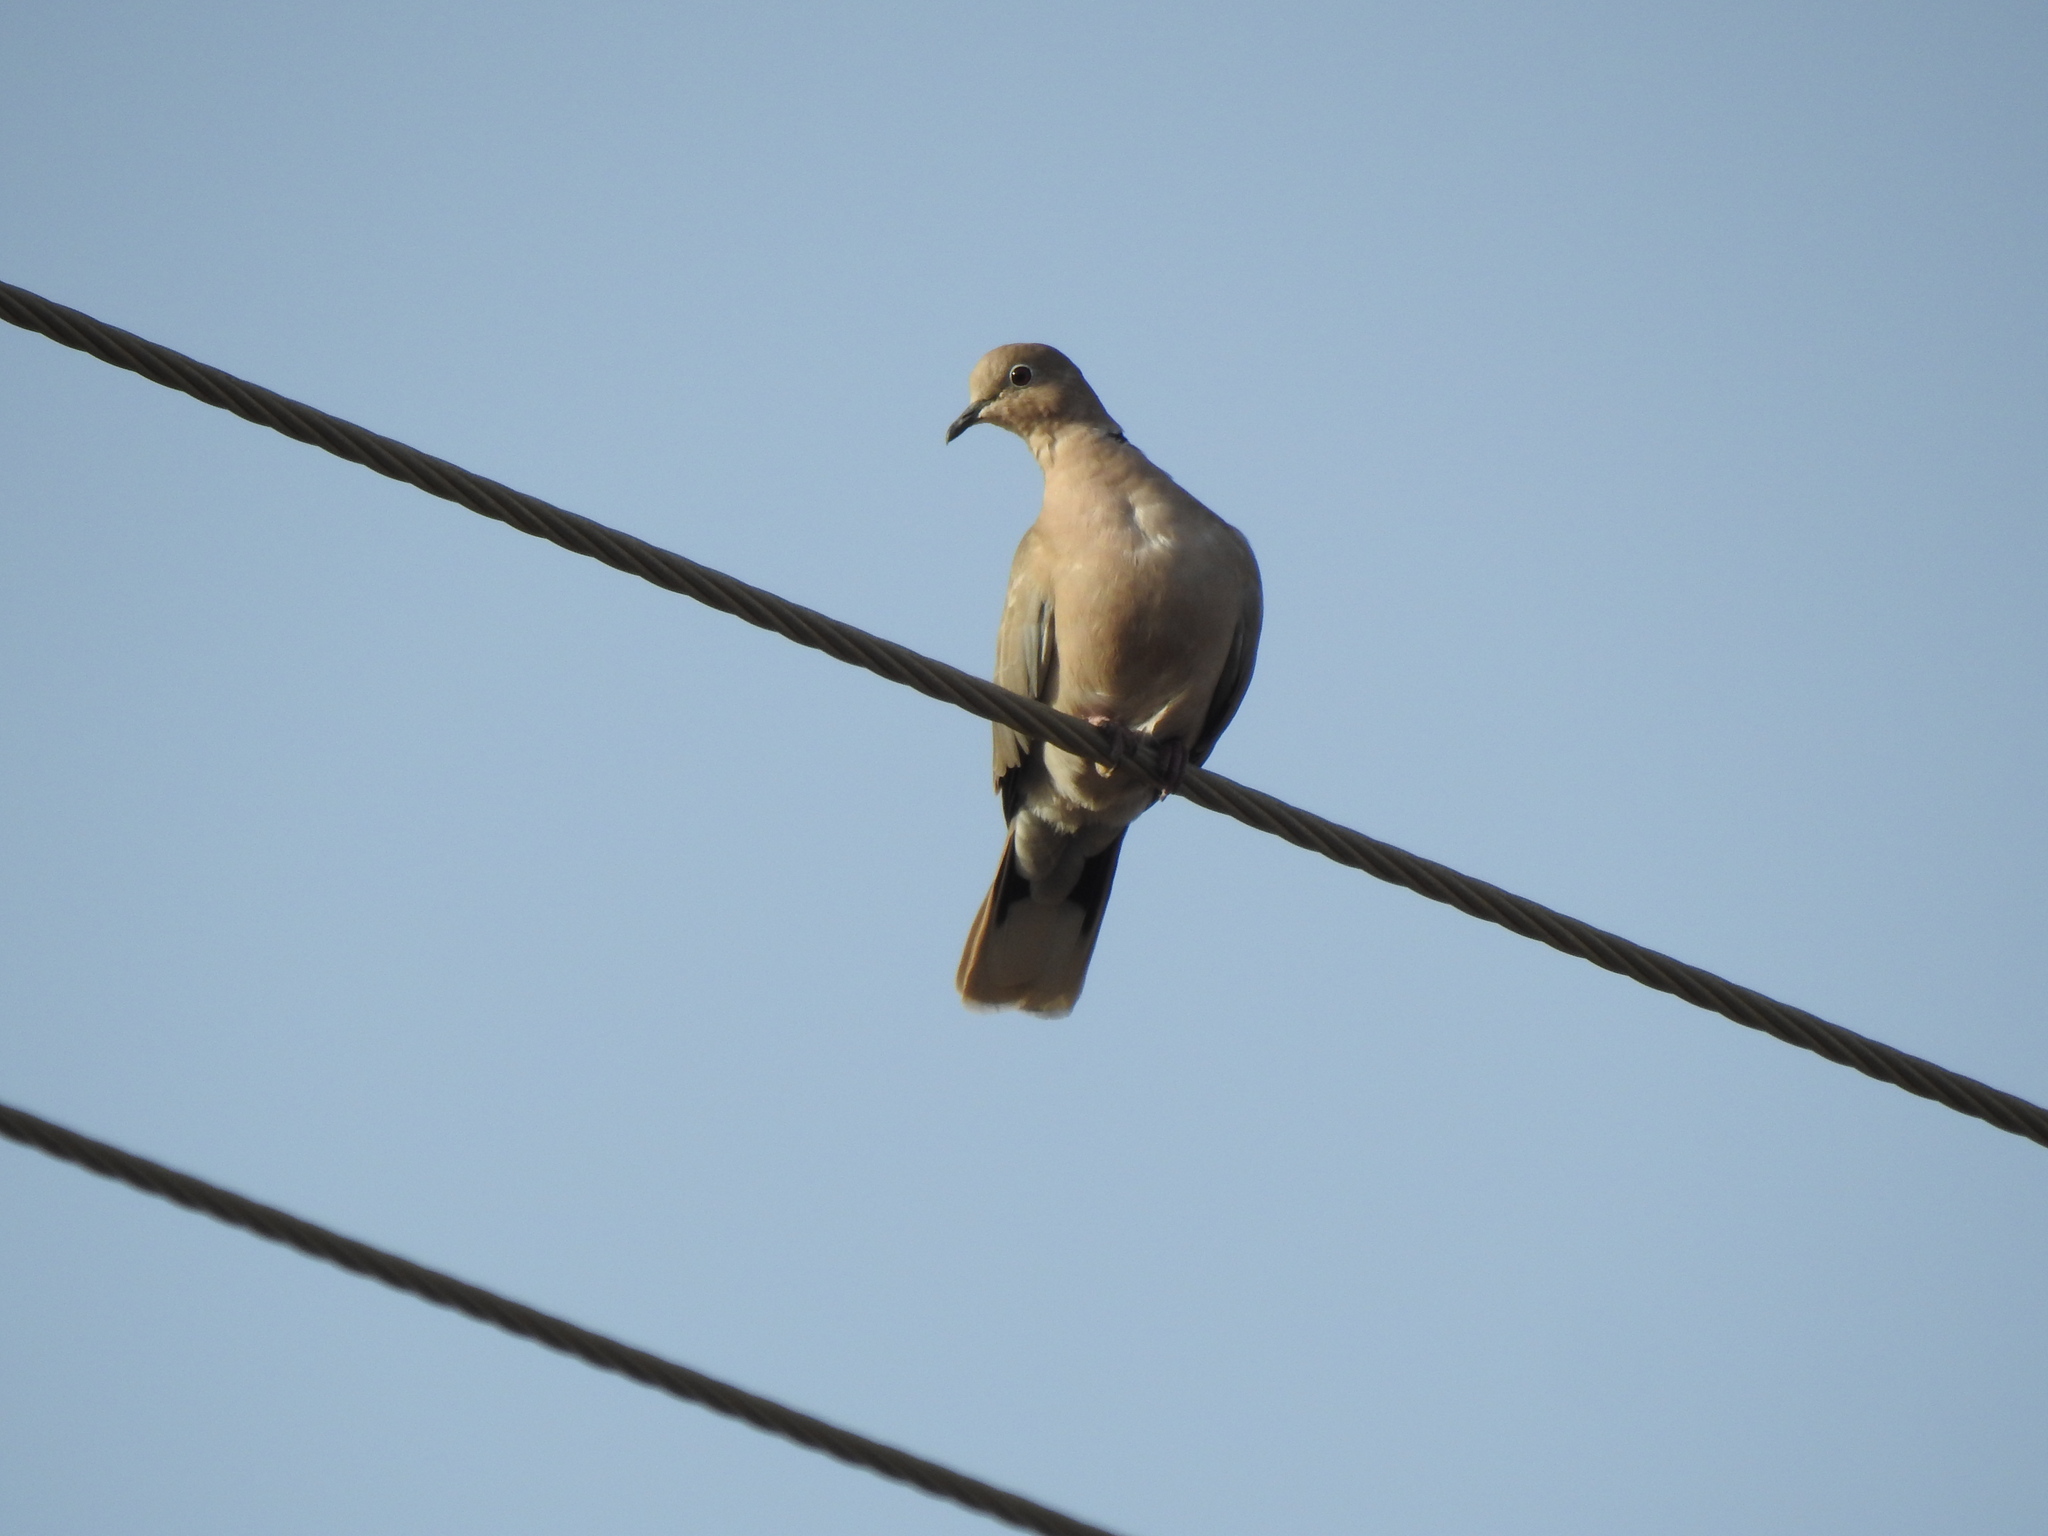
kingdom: Animalia
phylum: Chordata
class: Aves
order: Columbiformes
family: Columbidae
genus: Streptopelia
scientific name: Streptopelia decaocto
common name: Eurasian collared dove
